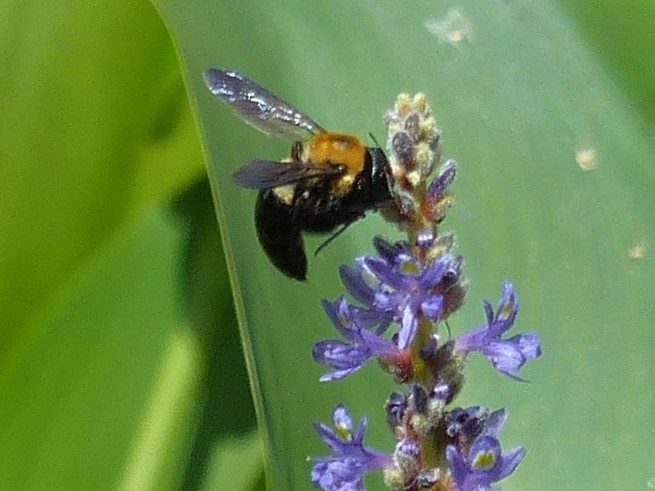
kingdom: Animalia
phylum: Arthropoda
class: Insecta
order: Hymenoptera
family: Apidae
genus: Xylocopa
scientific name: Xylocopa virginica
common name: Carpenter bee
